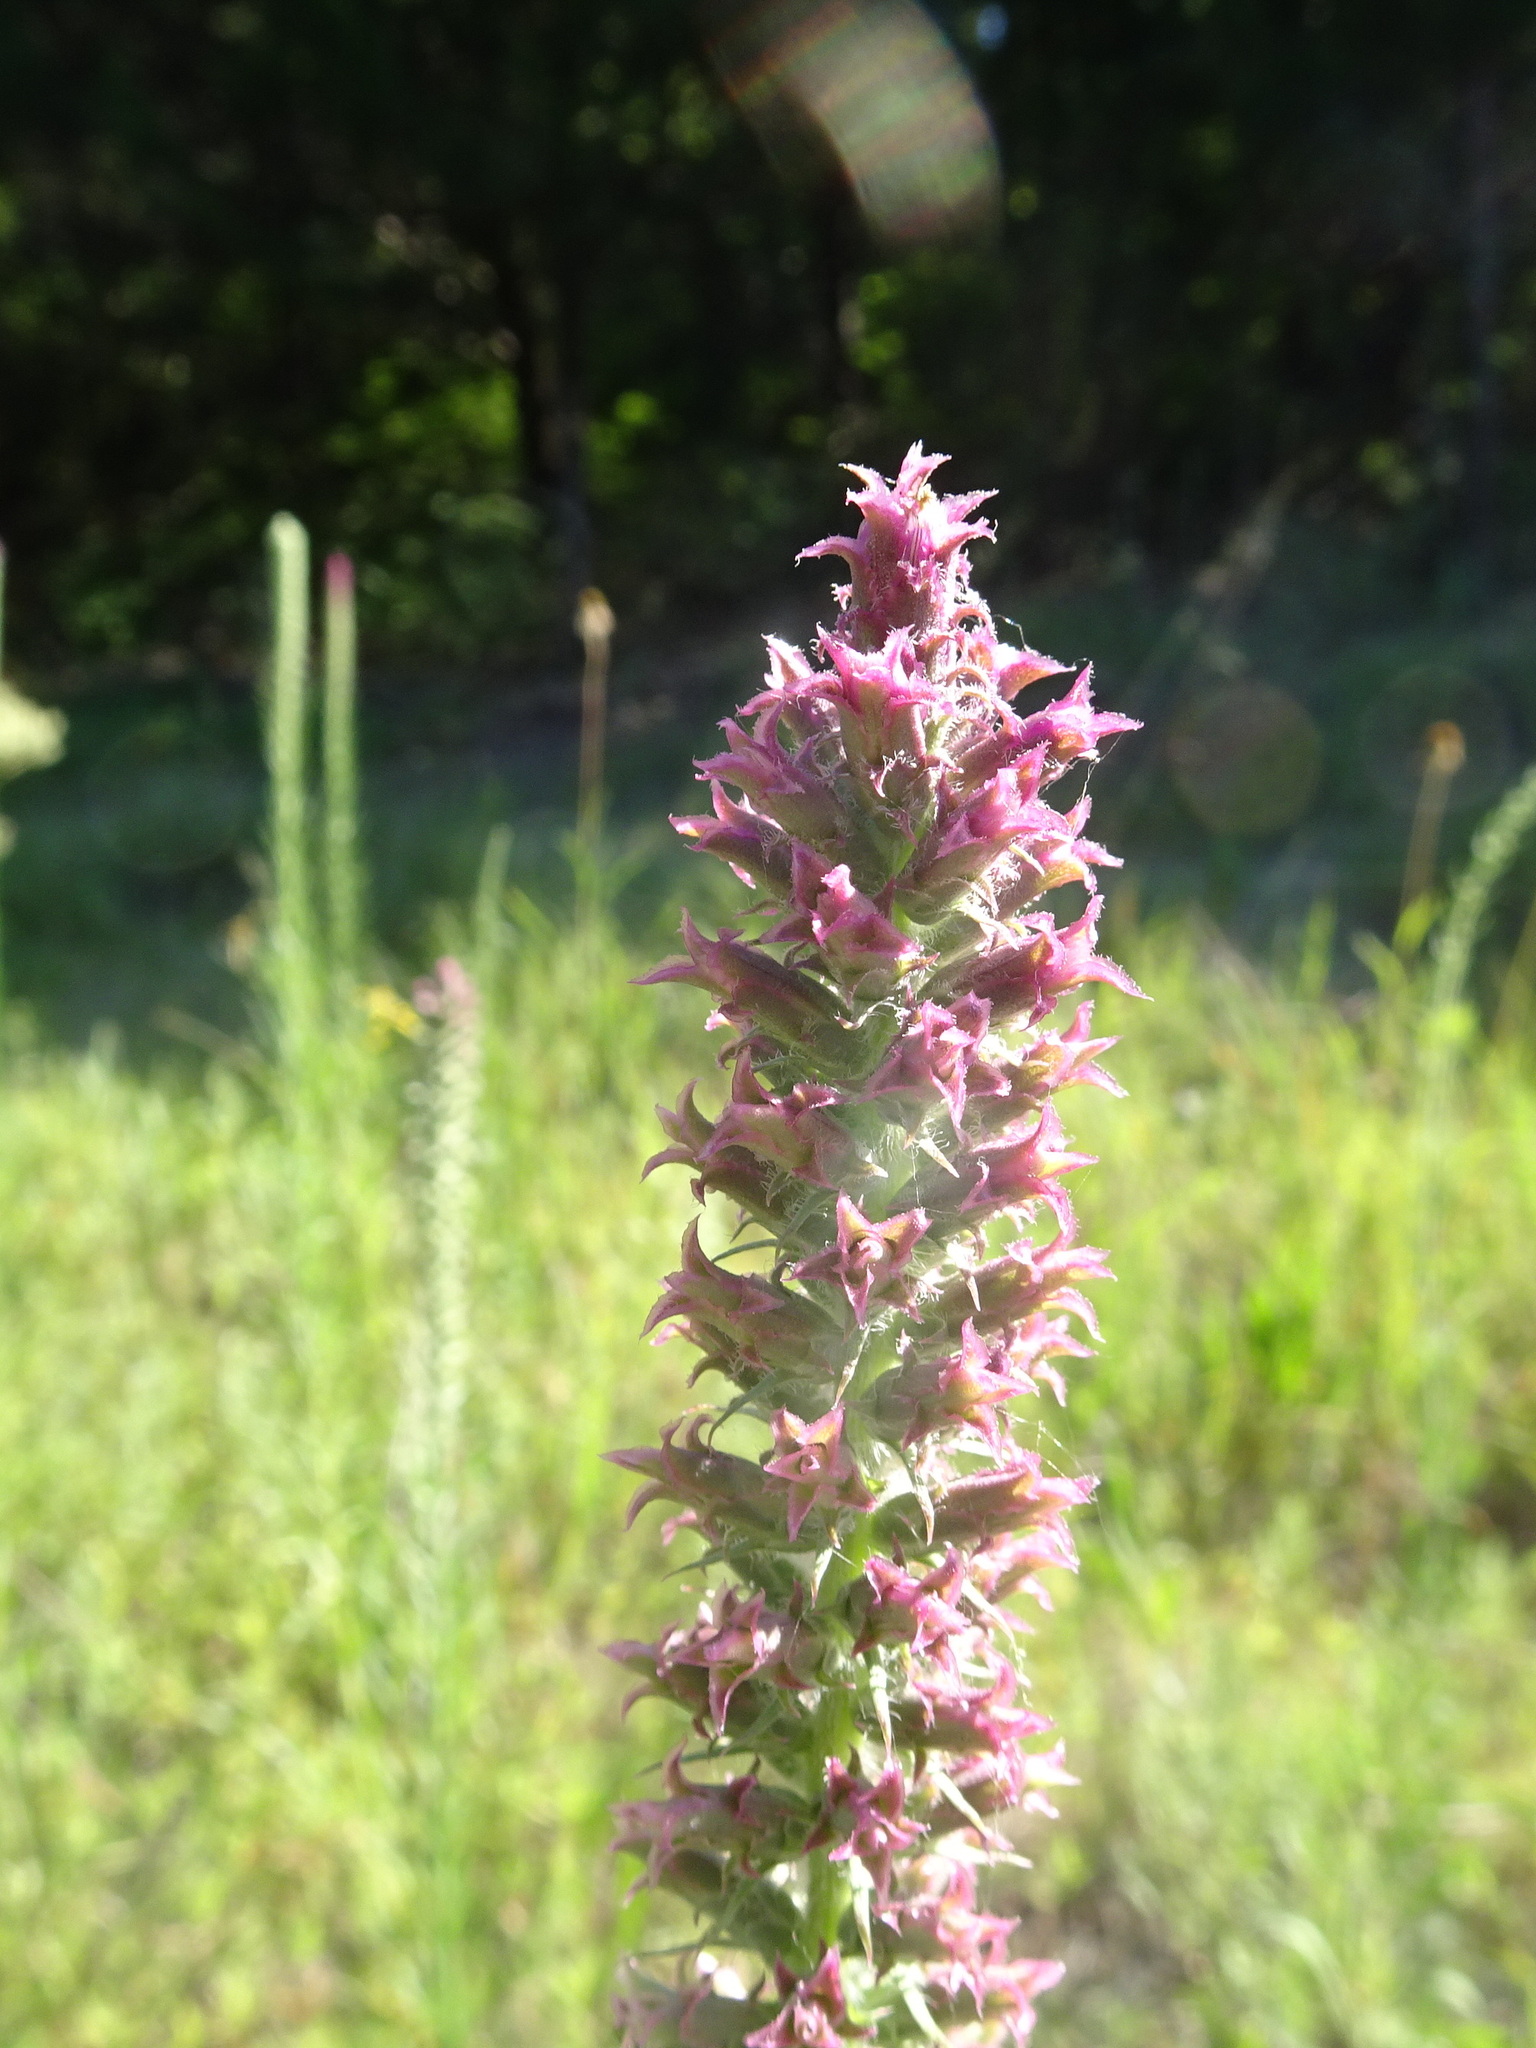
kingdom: Plantae
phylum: Tracheophyta
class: Magnoliopsida
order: Asterales
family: Asteraceae
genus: Liatris
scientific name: Liatris pycnostachya
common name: Cattail gayfeather
